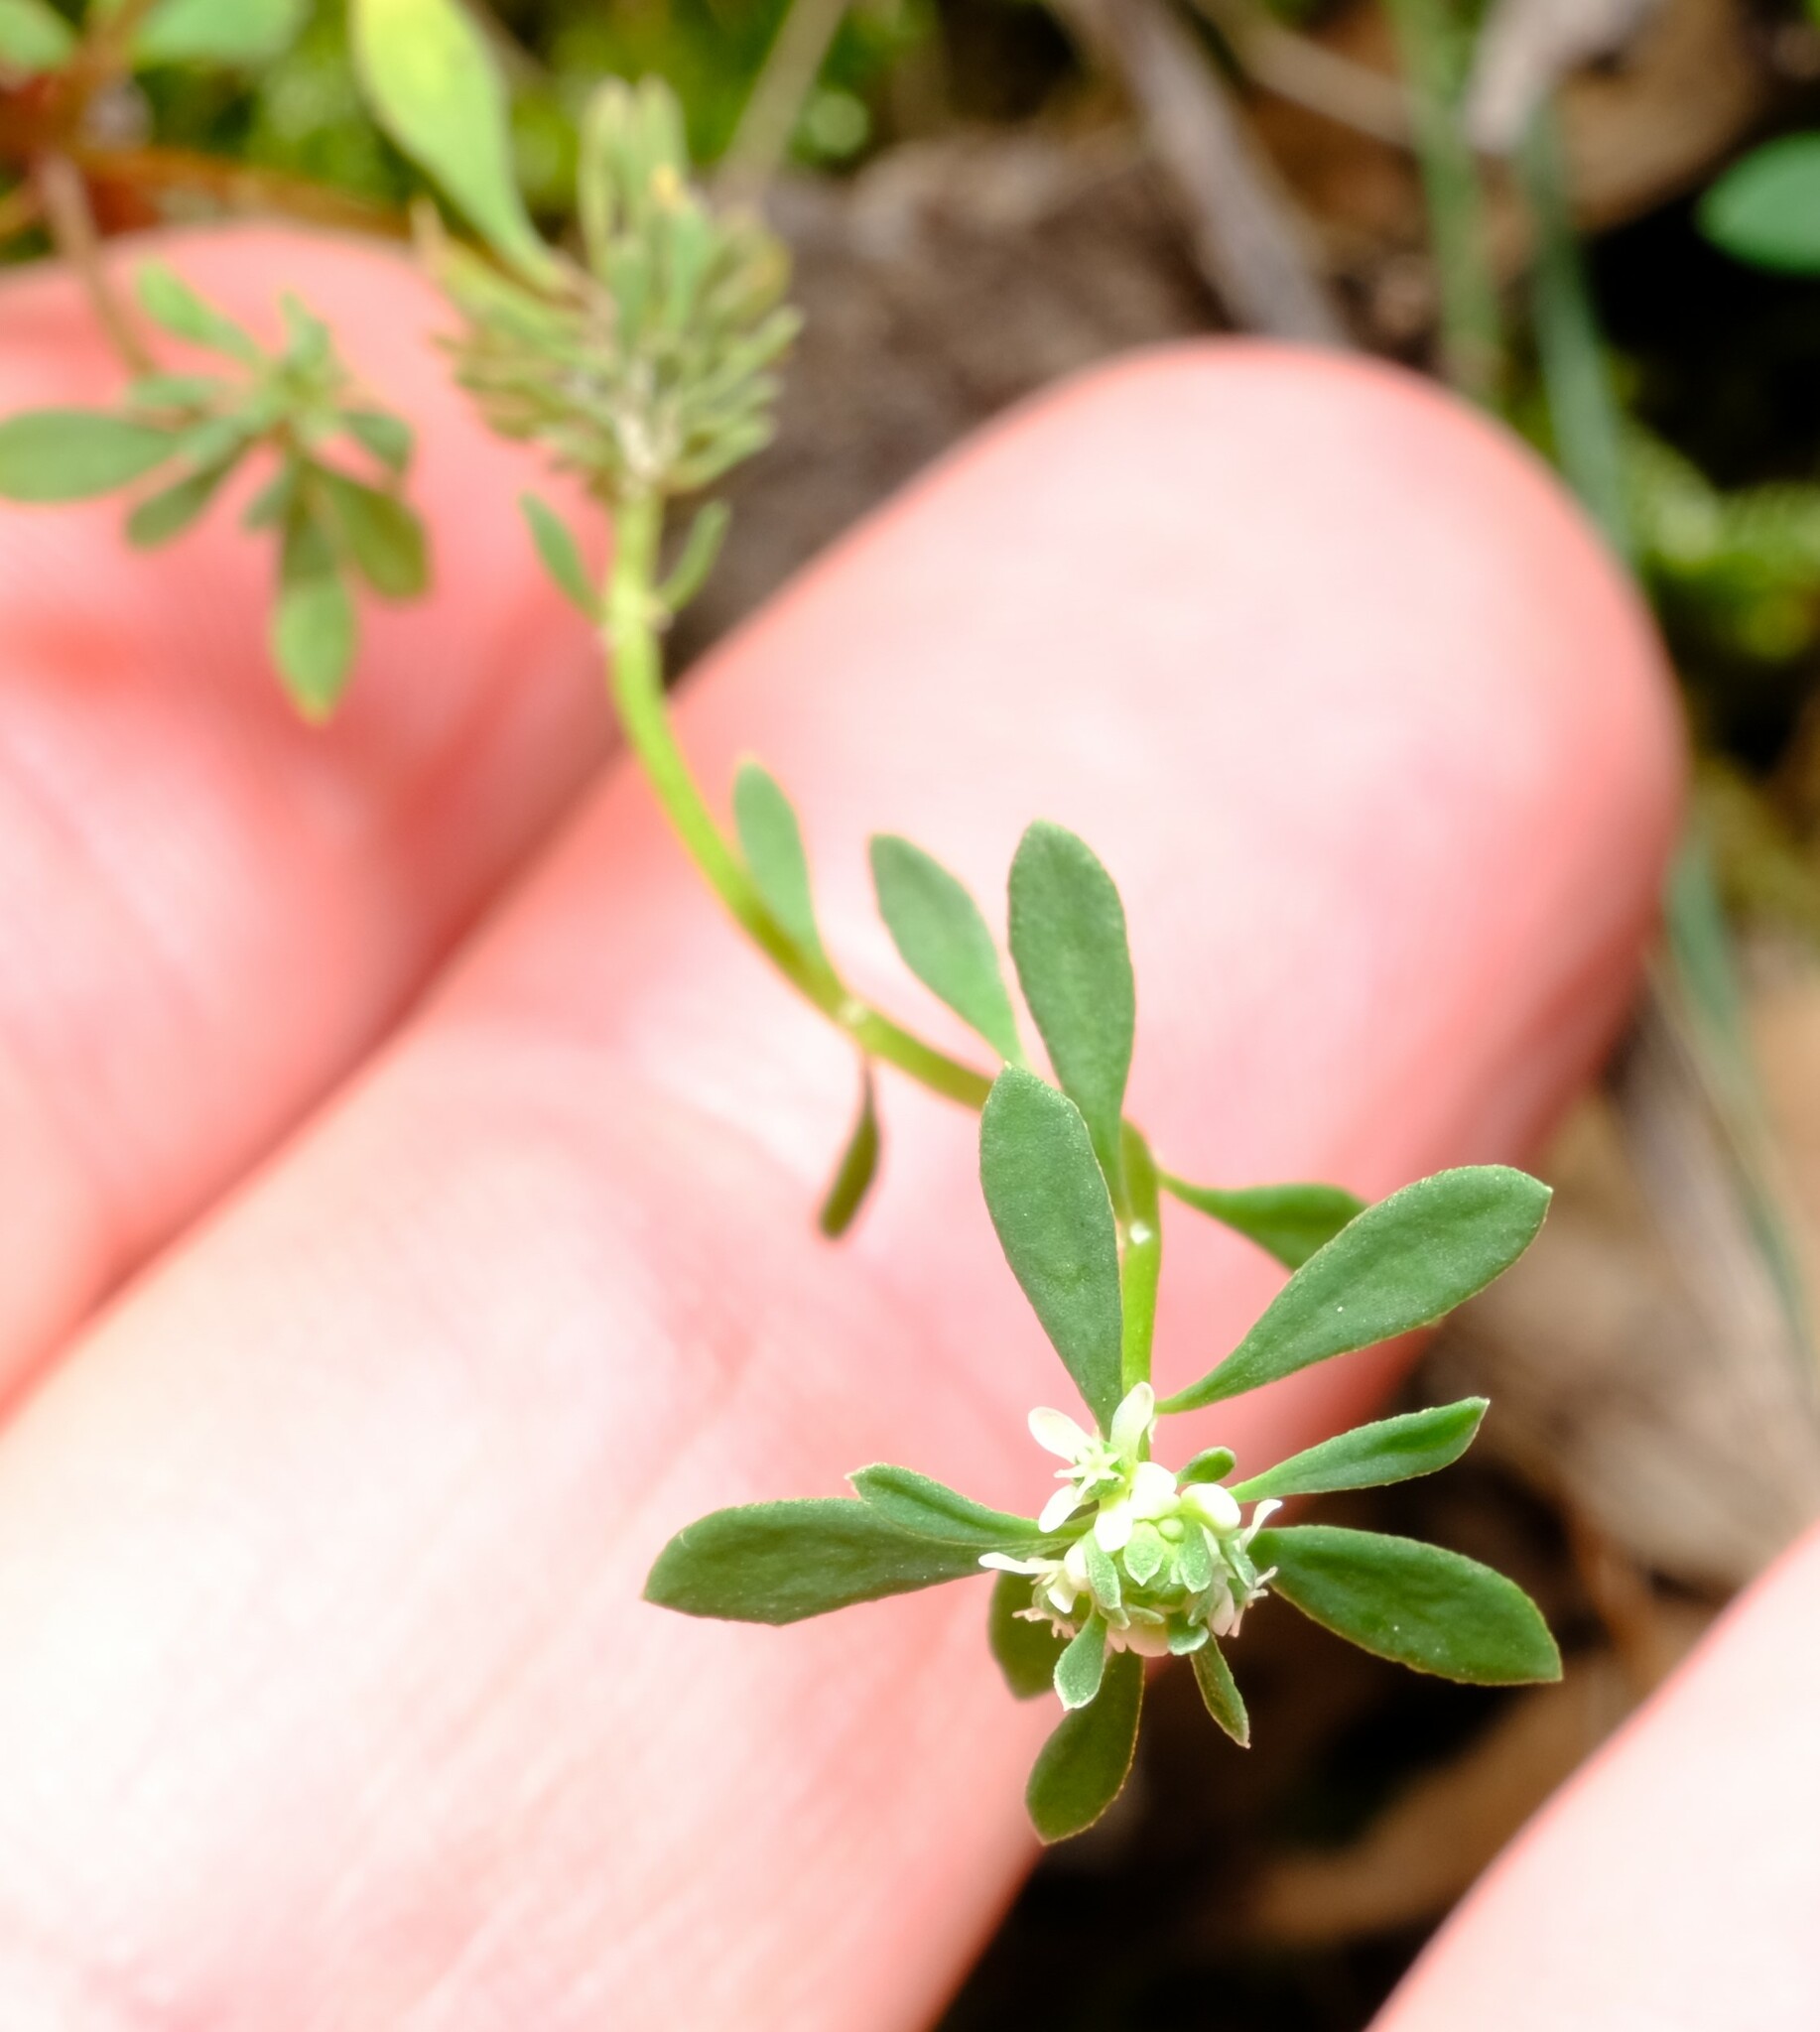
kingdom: Plantae
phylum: Tracheophyta
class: Magnoliopsida
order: Malpighiales
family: Phyllanthaceae
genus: Poranthera
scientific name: Poranthera microphylla
